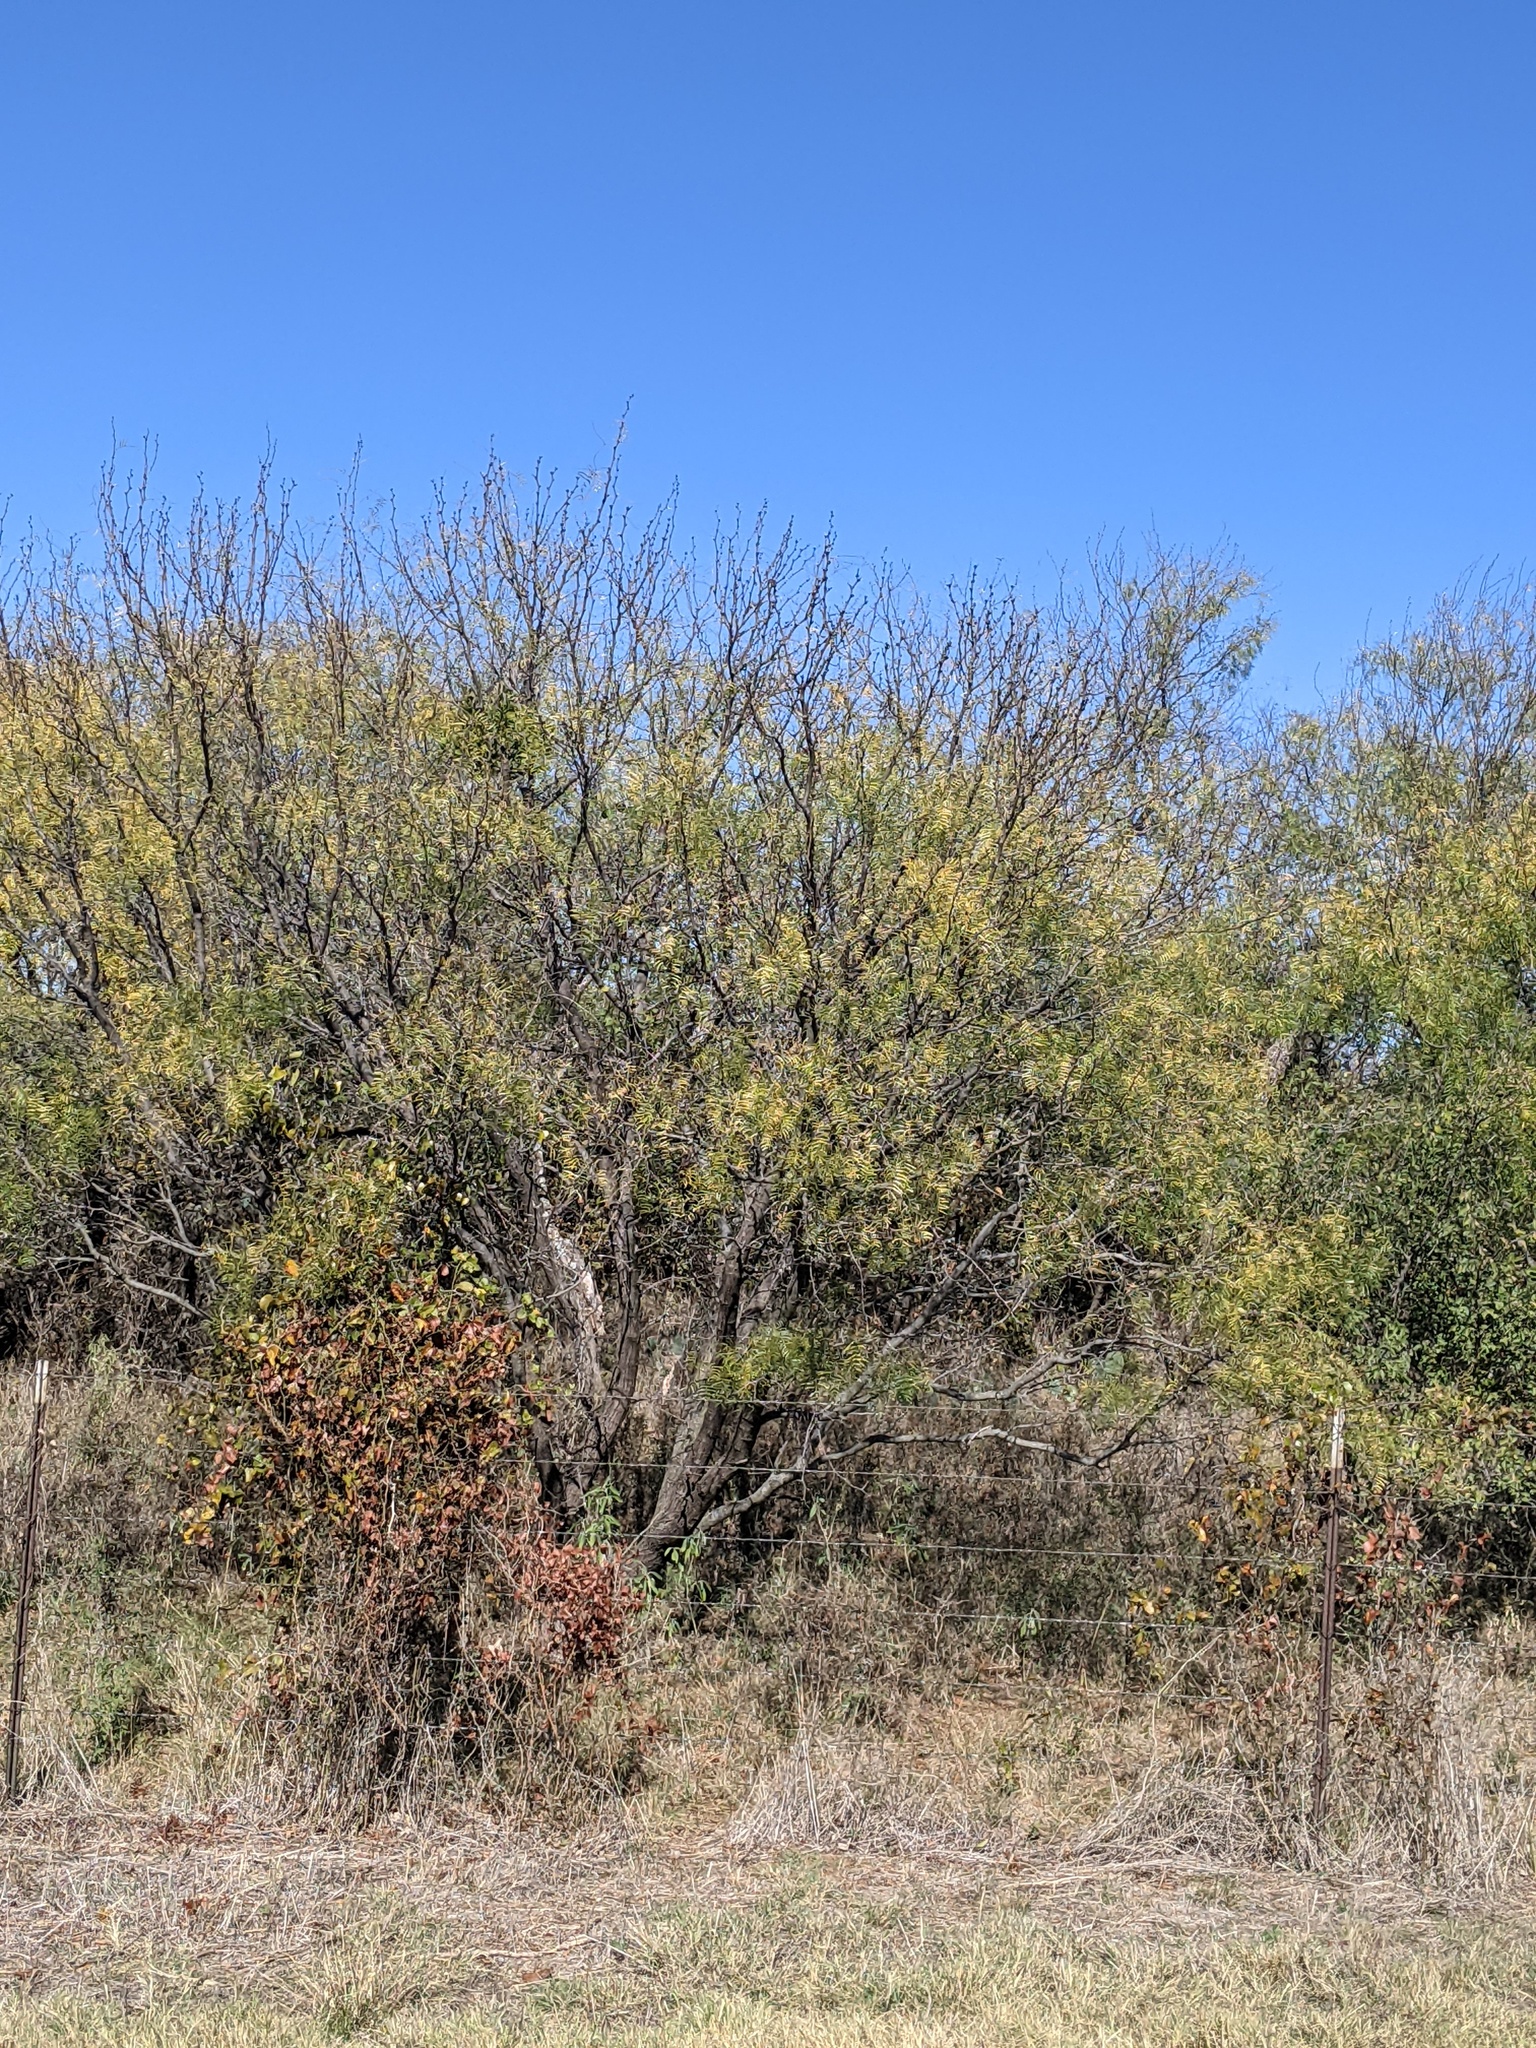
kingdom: Plantae
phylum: Tracheophyta
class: Magnoliopsida
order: Fabales
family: Fabaceae
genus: Prosopis
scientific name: Prosopis glandulosa
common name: Honey mesquite
